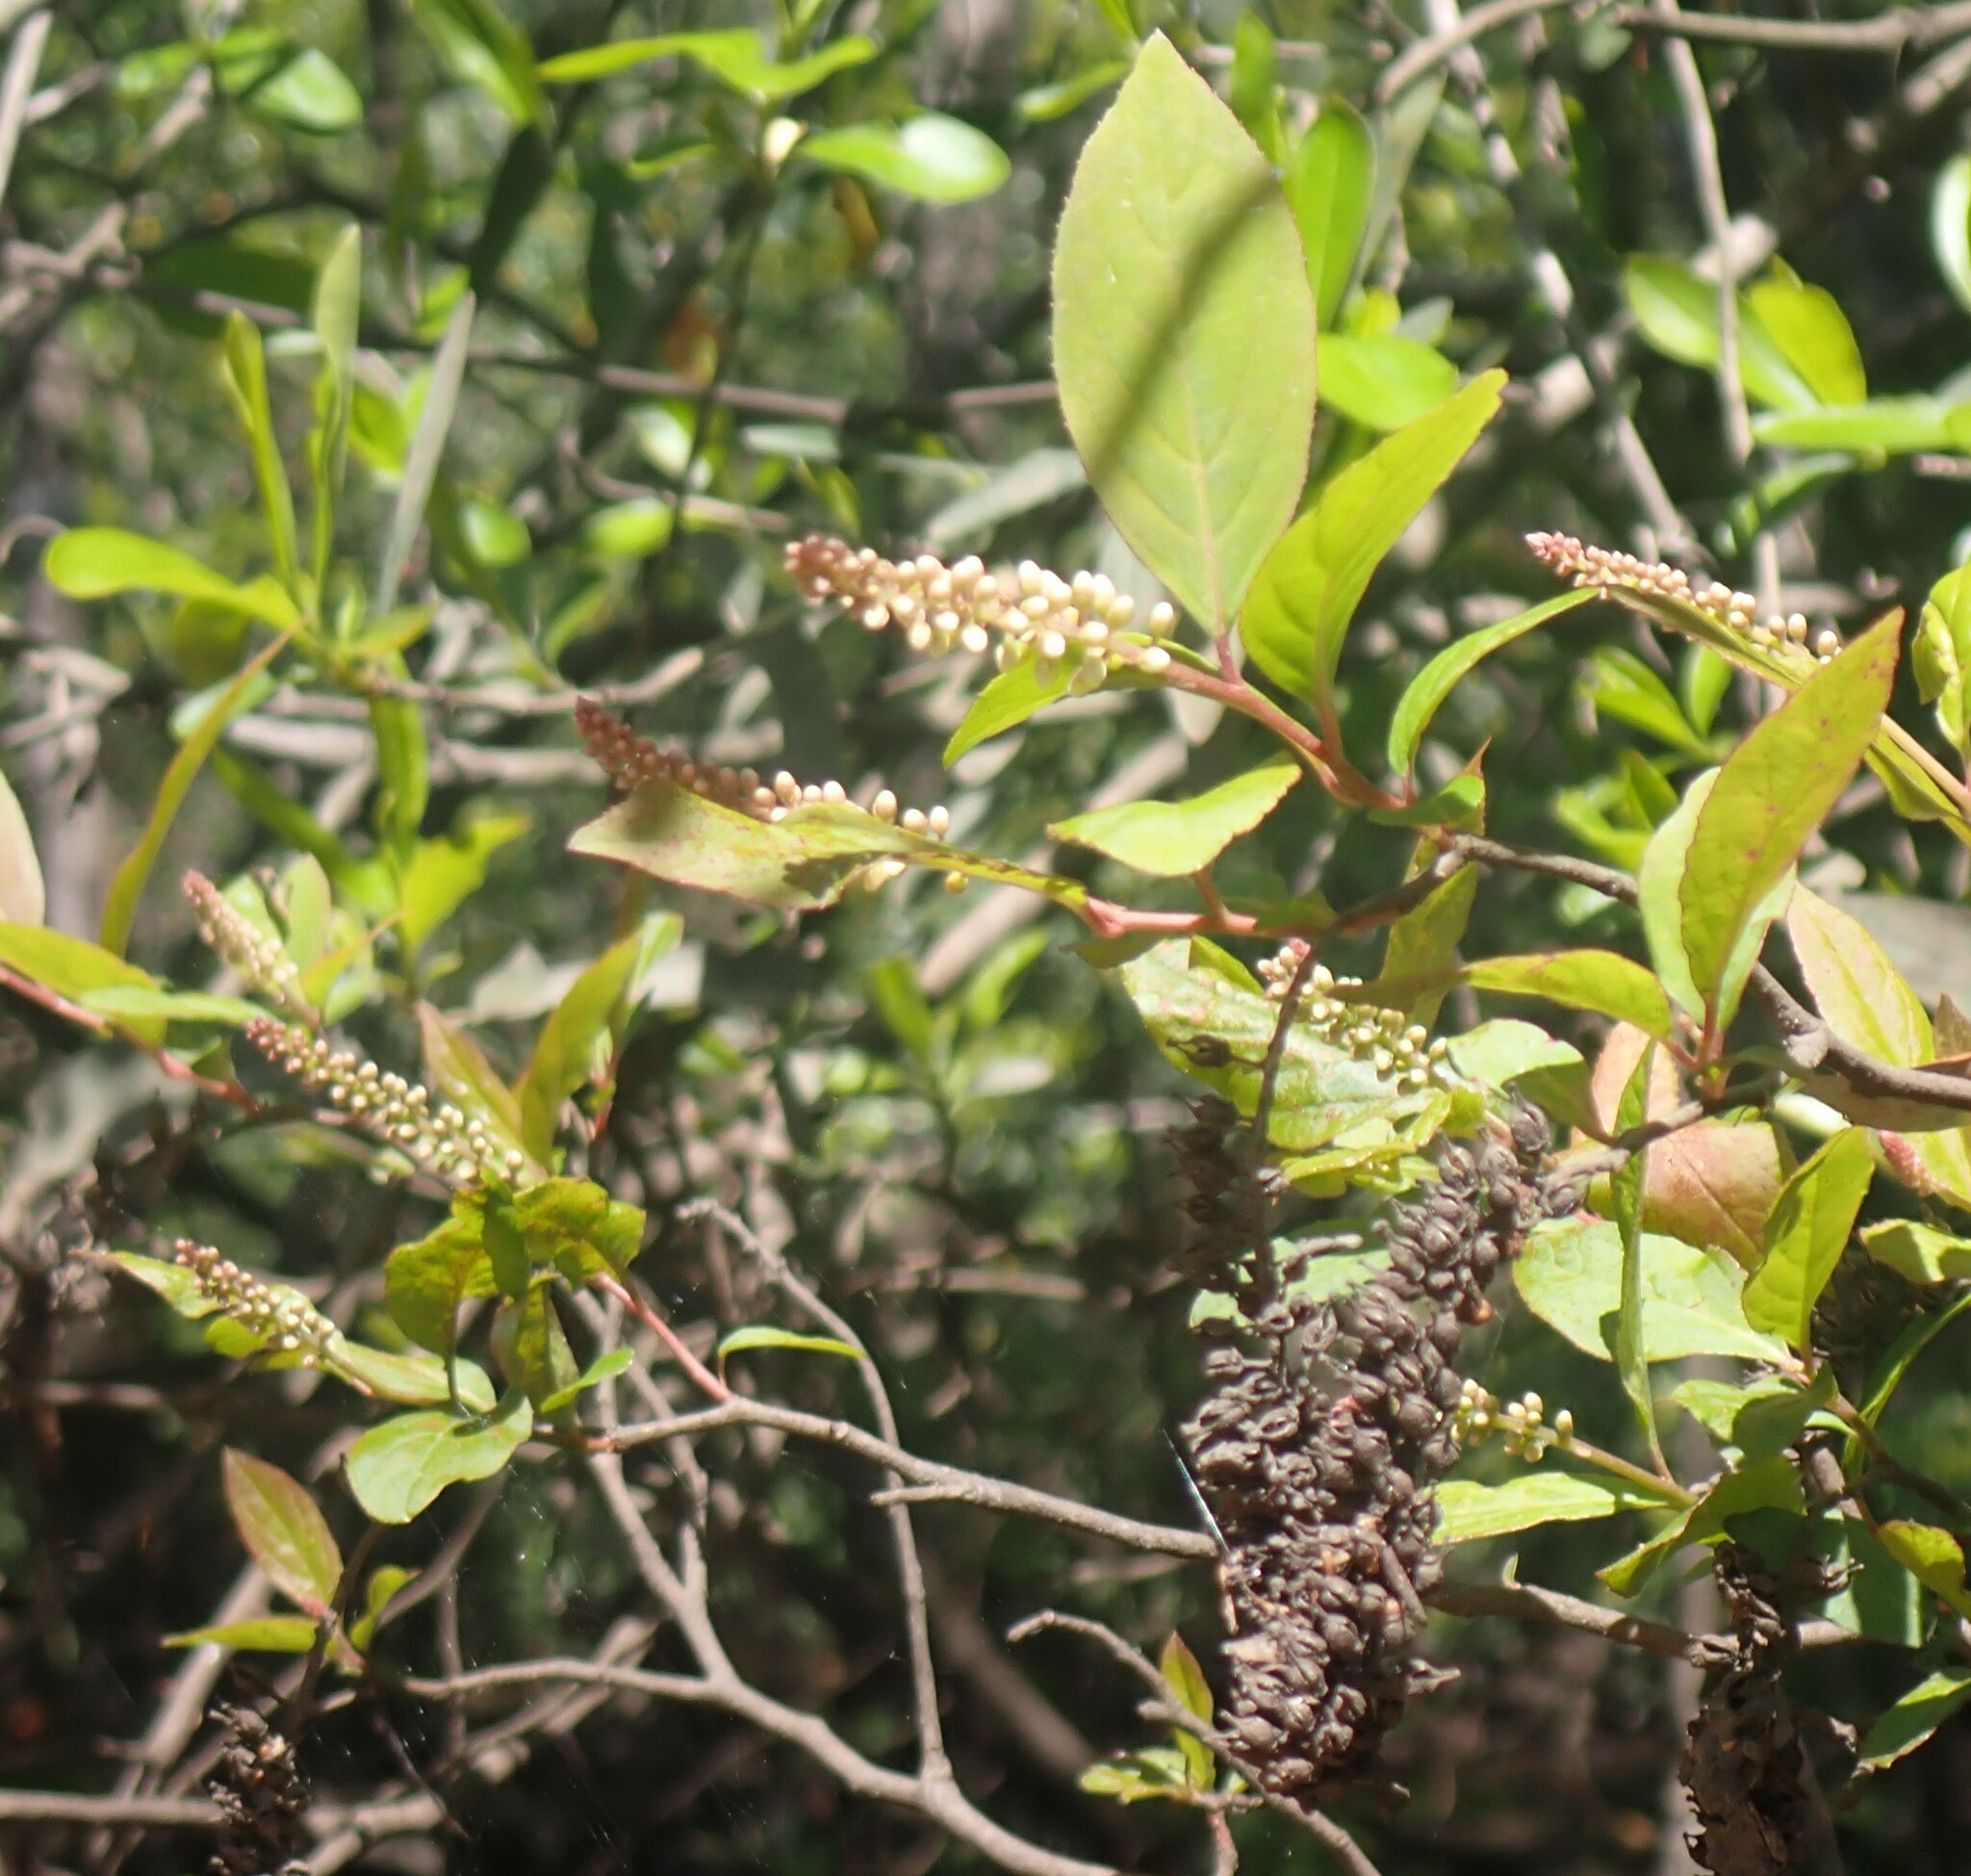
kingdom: Plantae
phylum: Tracheophyta
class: Magnoliopsida
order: Saxifragales
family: Iteaceae
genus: Itea
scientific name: Itea virginica
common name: Sweetspire
